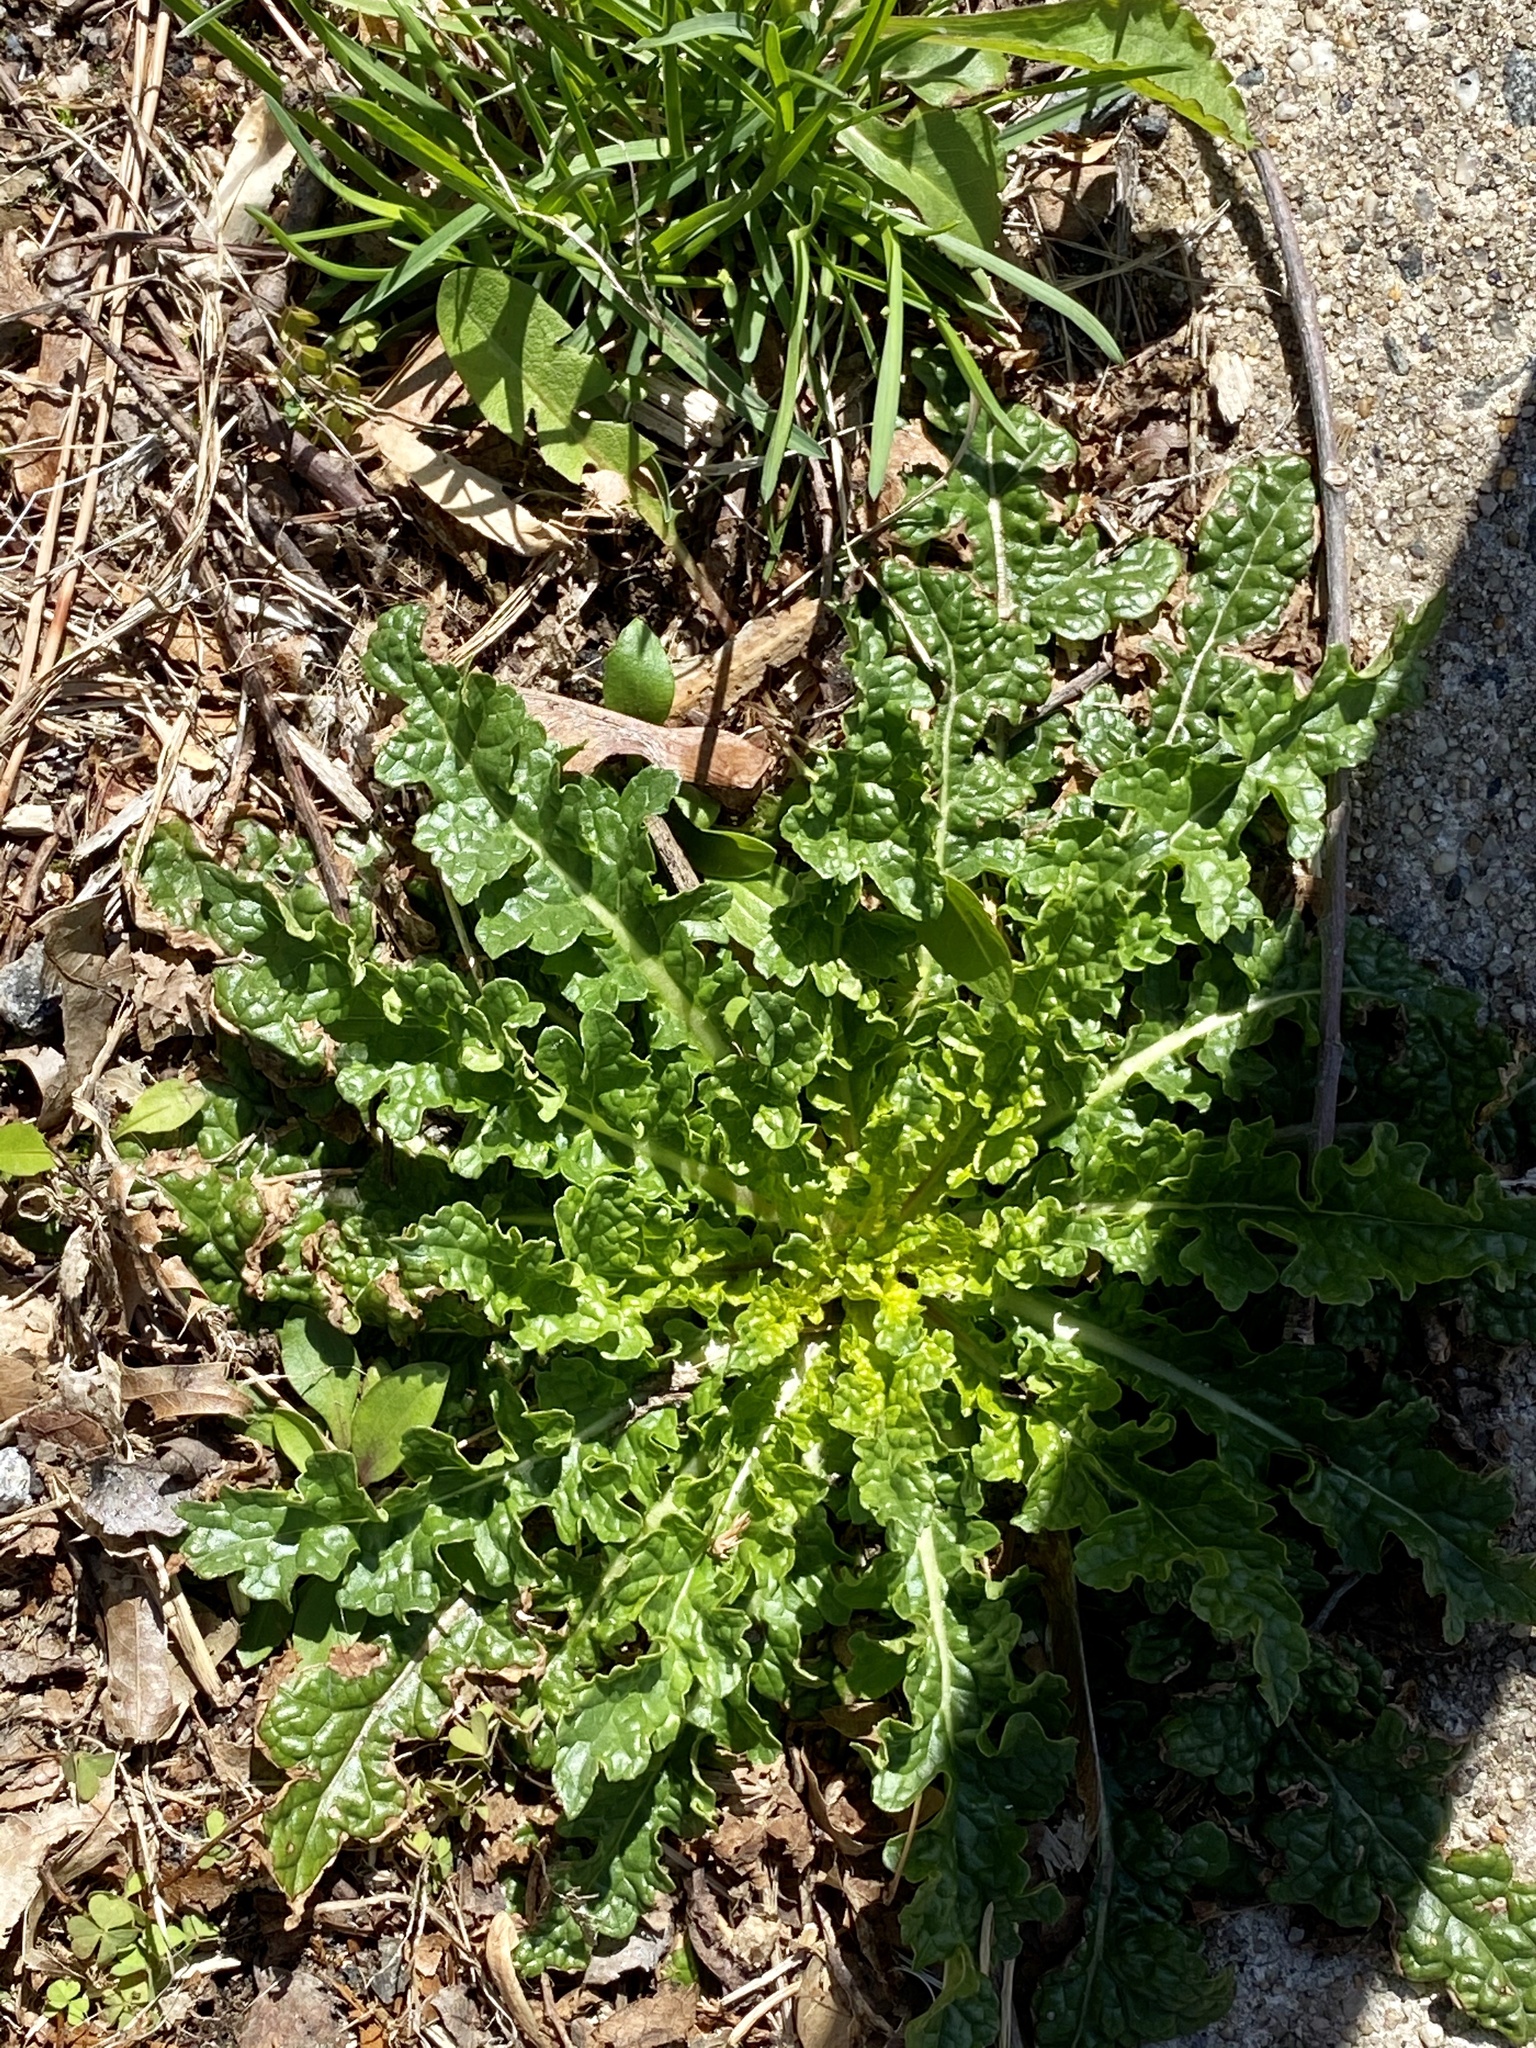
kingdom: Plantae
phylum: Tracheophyta
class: Magnoliopsida
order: Lamiales
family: Scrophulariaceae
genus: Verbascum
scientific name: Verbascum blattaria
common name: Moth mullein
